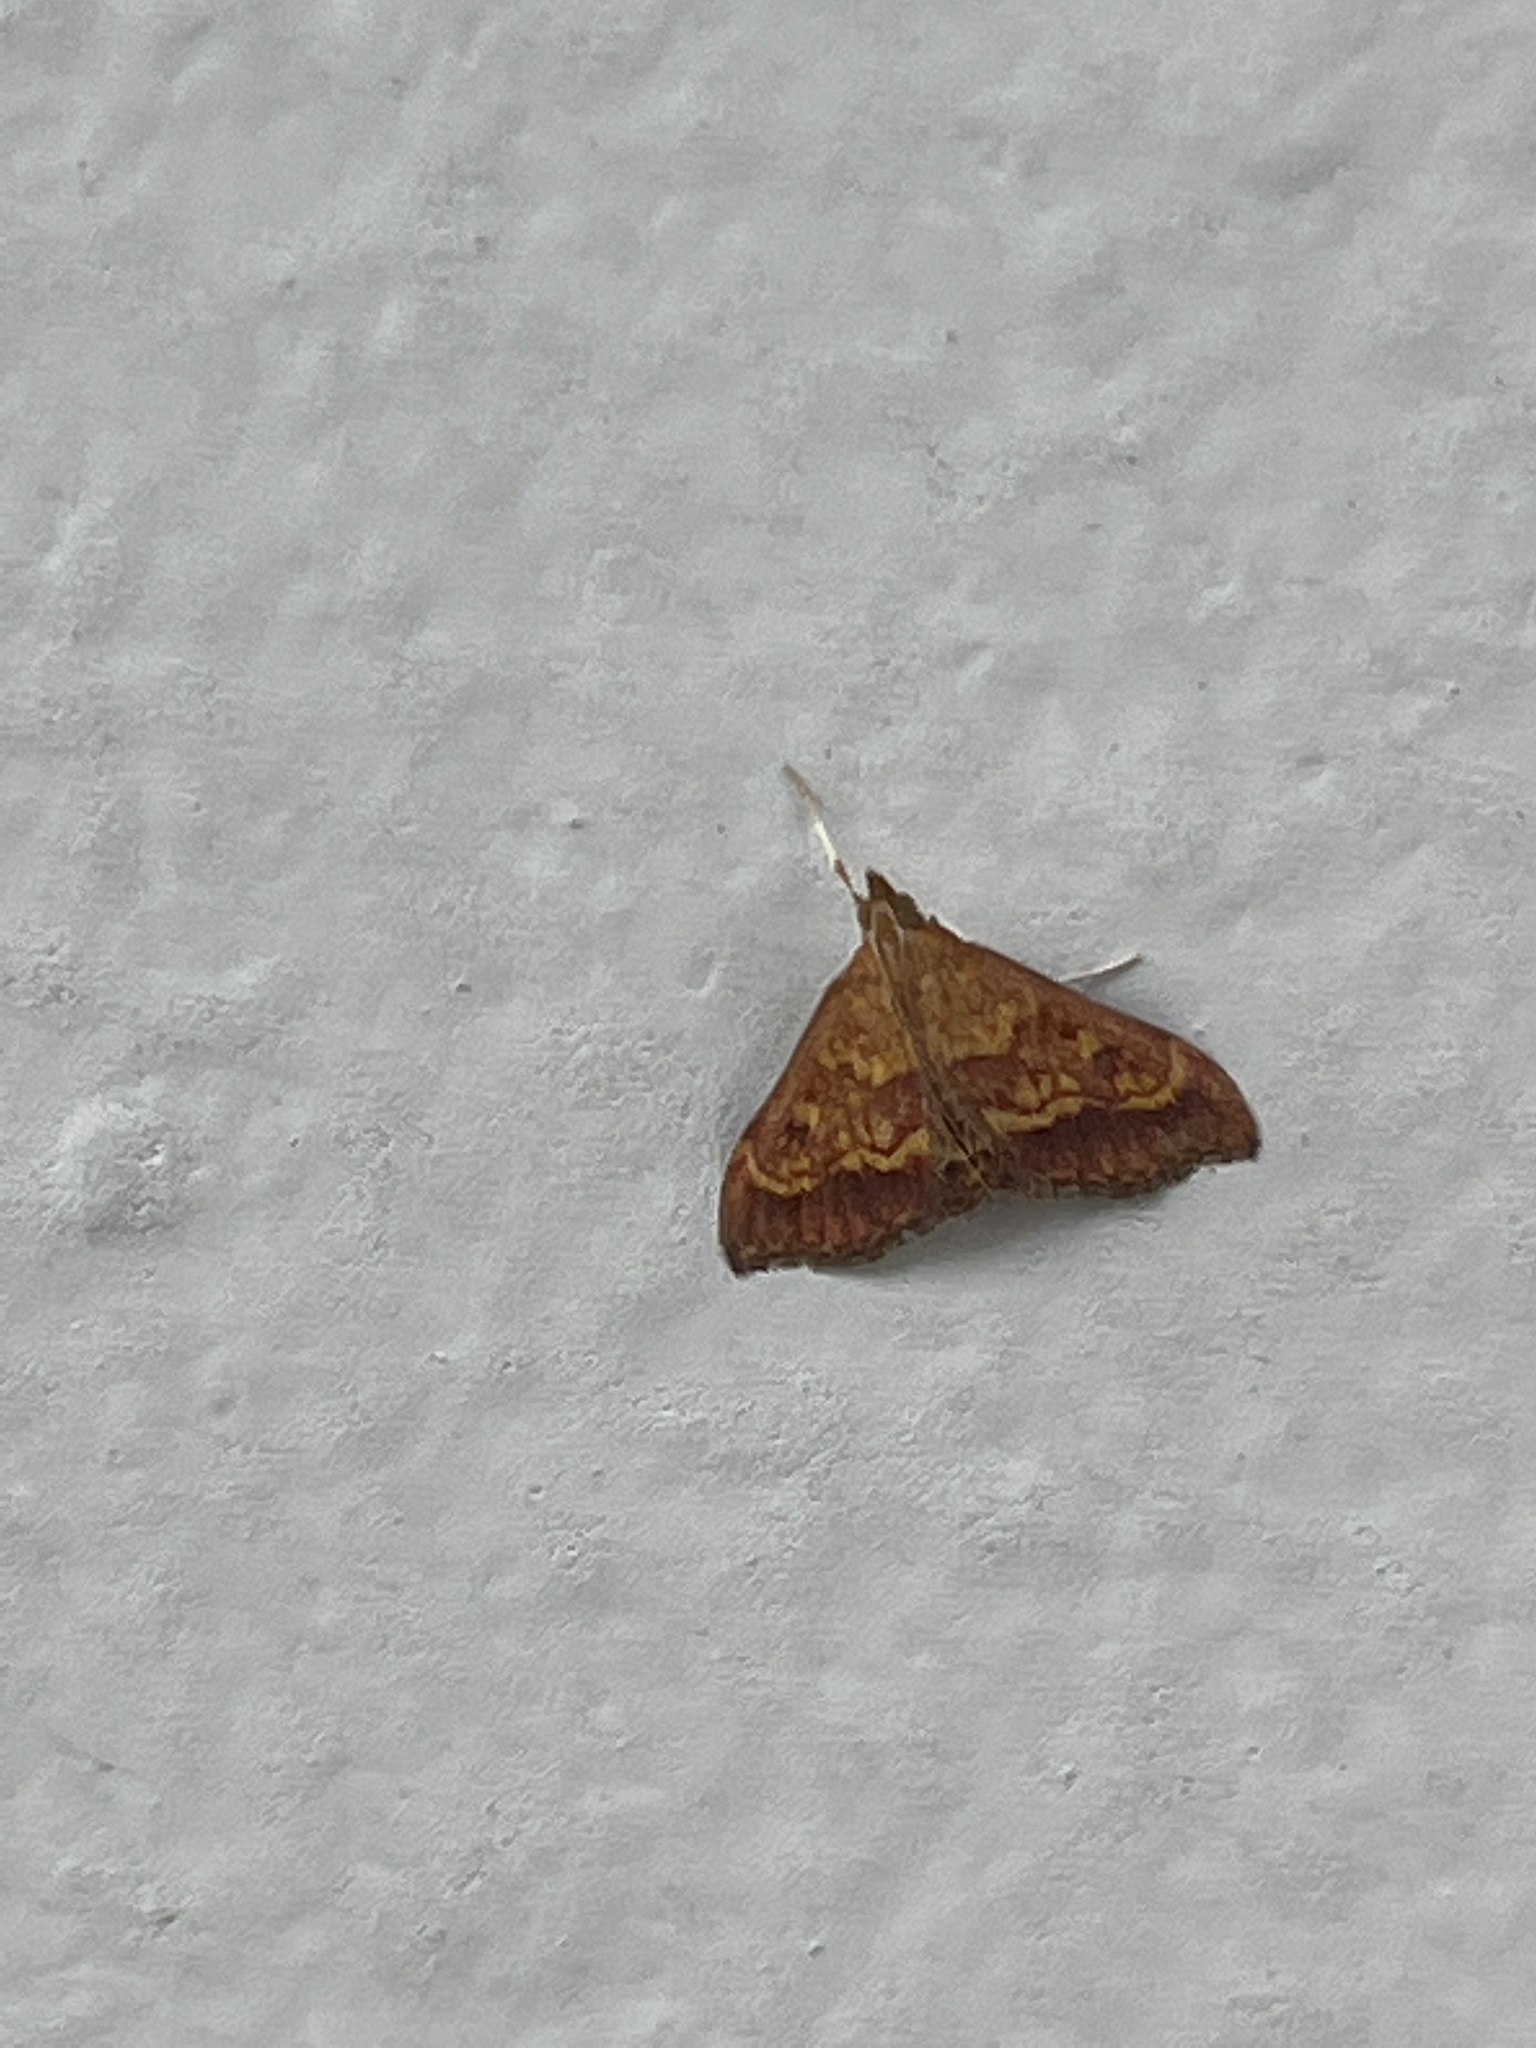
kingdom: Animalia
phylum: Arthropoda
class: Insecta
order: Lepidoptera
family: Crambidae
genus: Trithyris
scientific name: Trithyris
